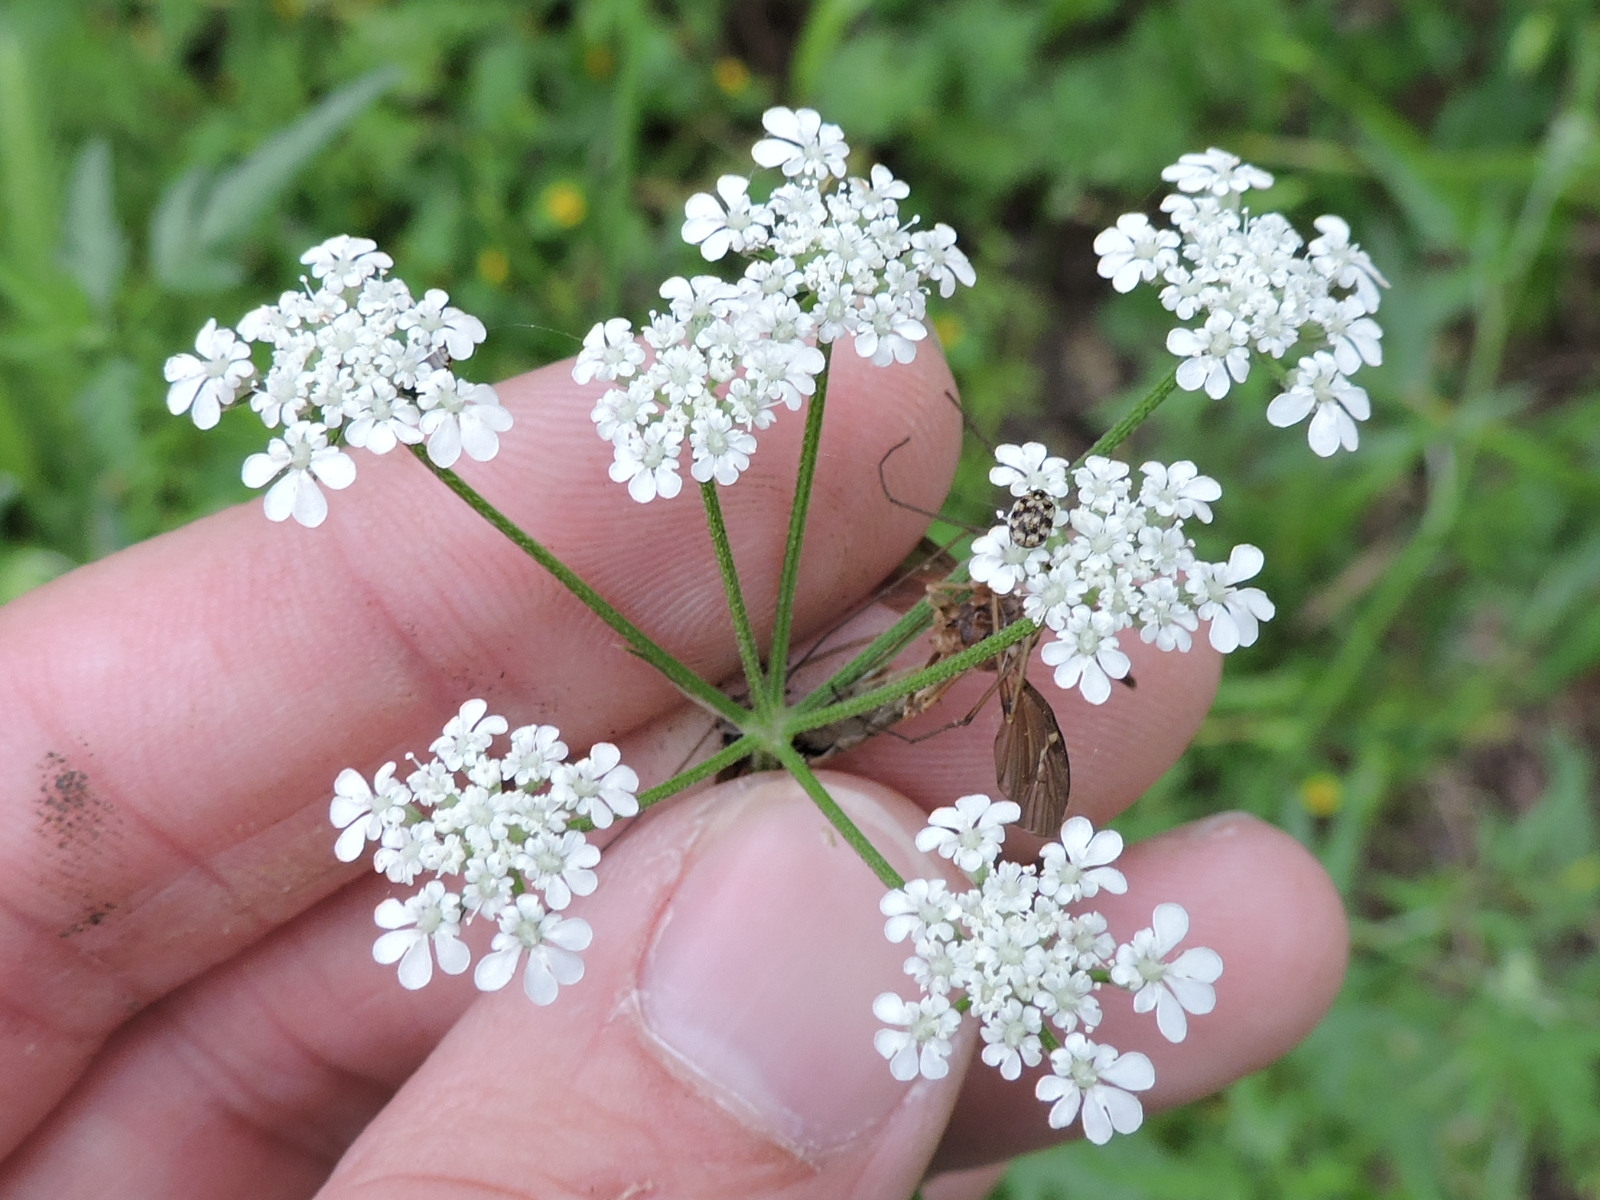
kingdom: Plantae
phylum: Tracheophyta
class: Magnoliopsida
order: Apiales
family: Apiaceae
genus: Torilis
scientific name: Torilis arvensis
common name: Spreading hedge-parsley
